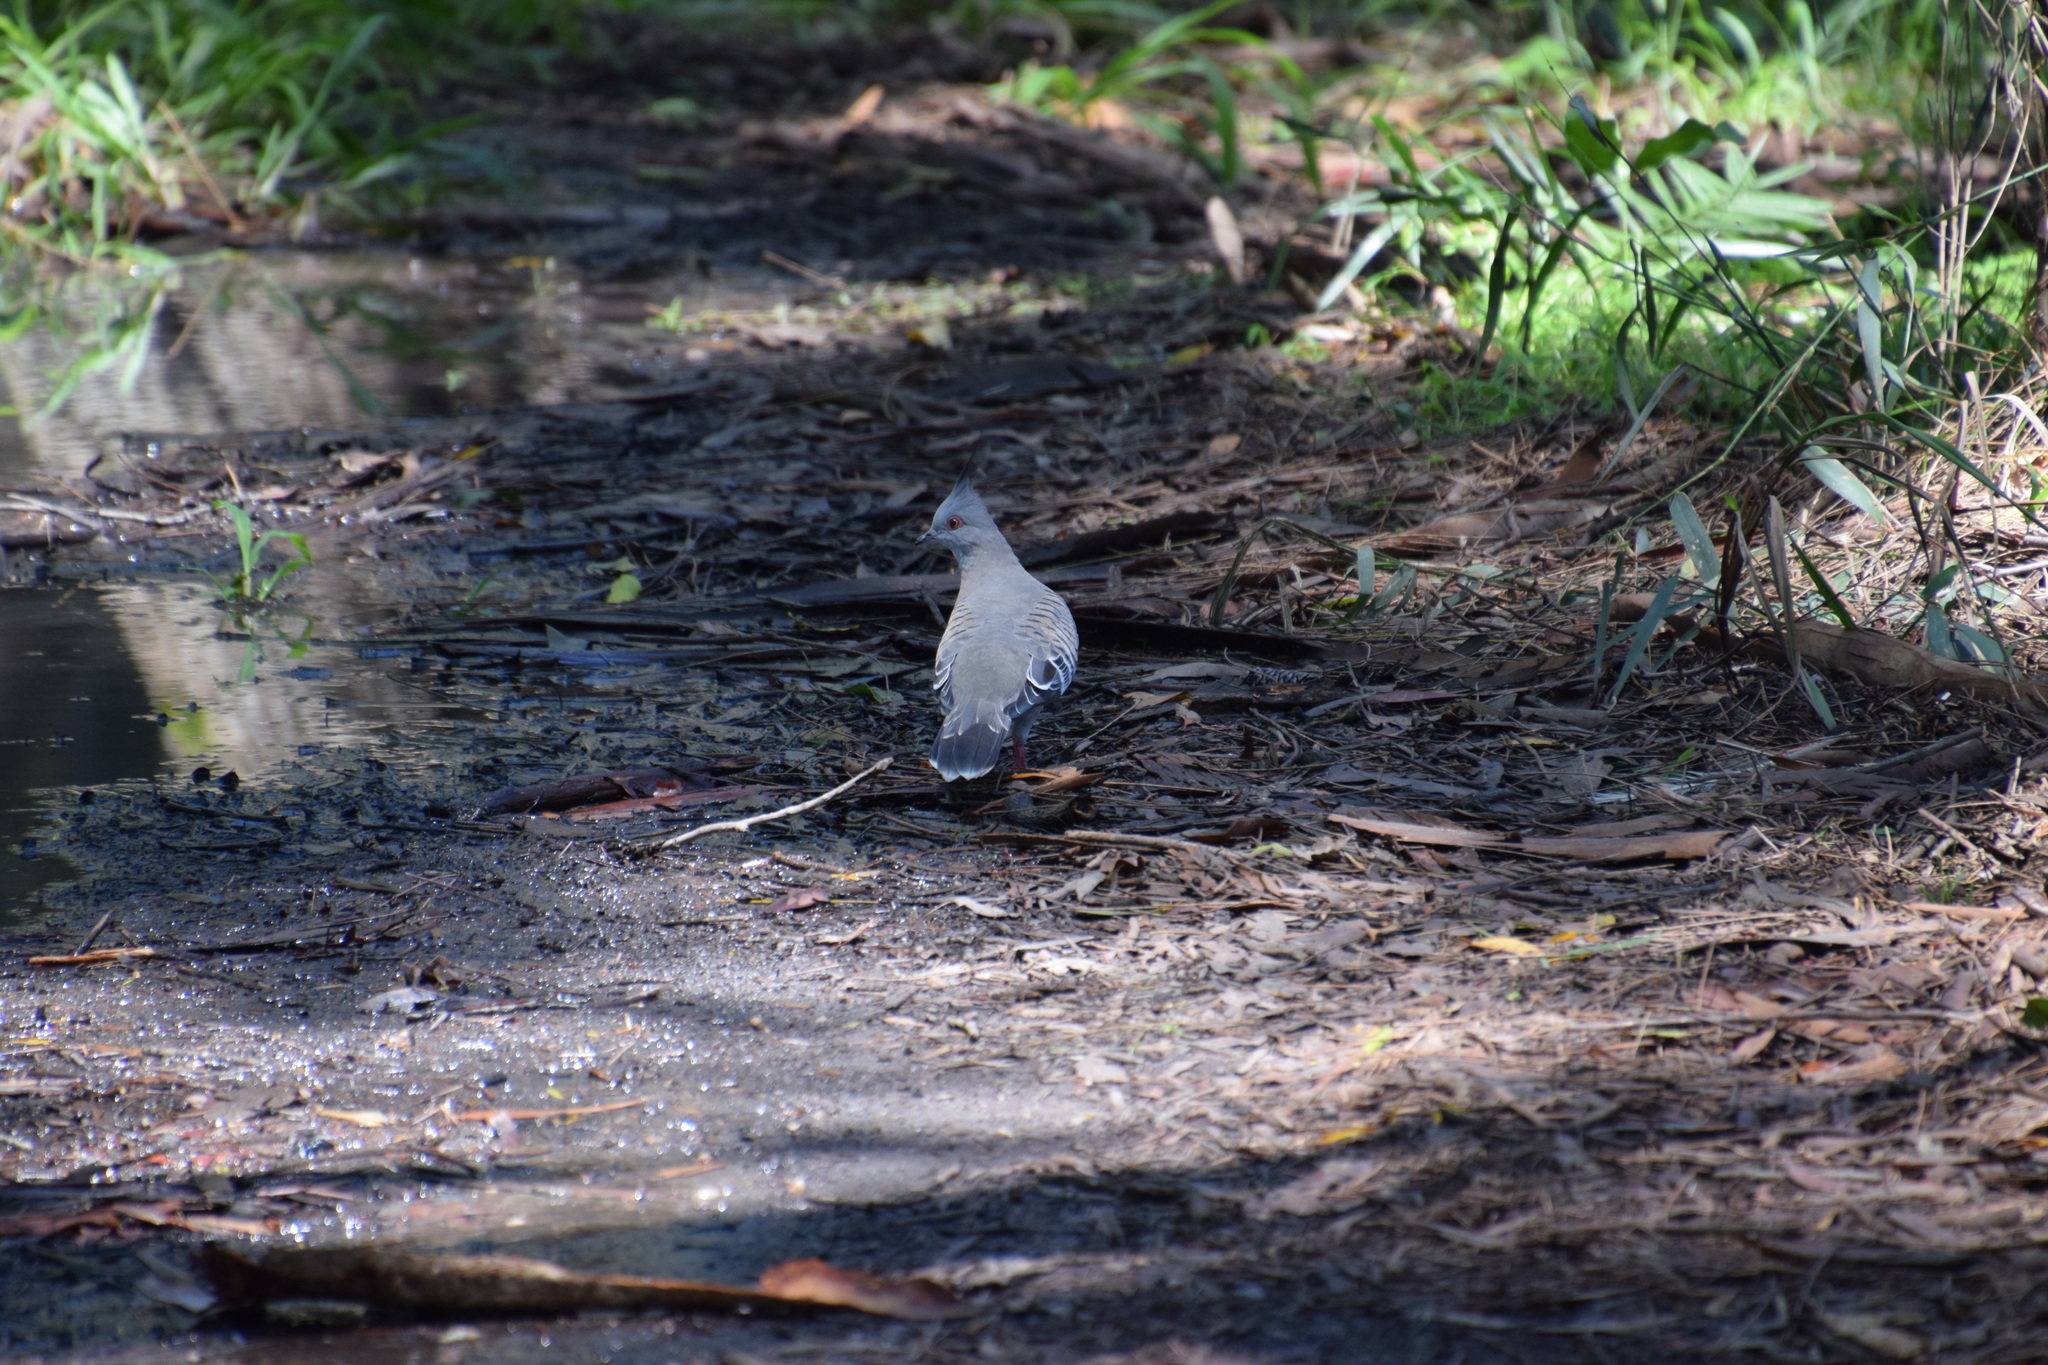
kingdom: Animalia
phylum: Chordata
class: Aves
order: Columbiformes
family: Columbidae
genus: Ocyphaps
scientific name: Ocyphaps lophotes
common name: Crested pigeon
